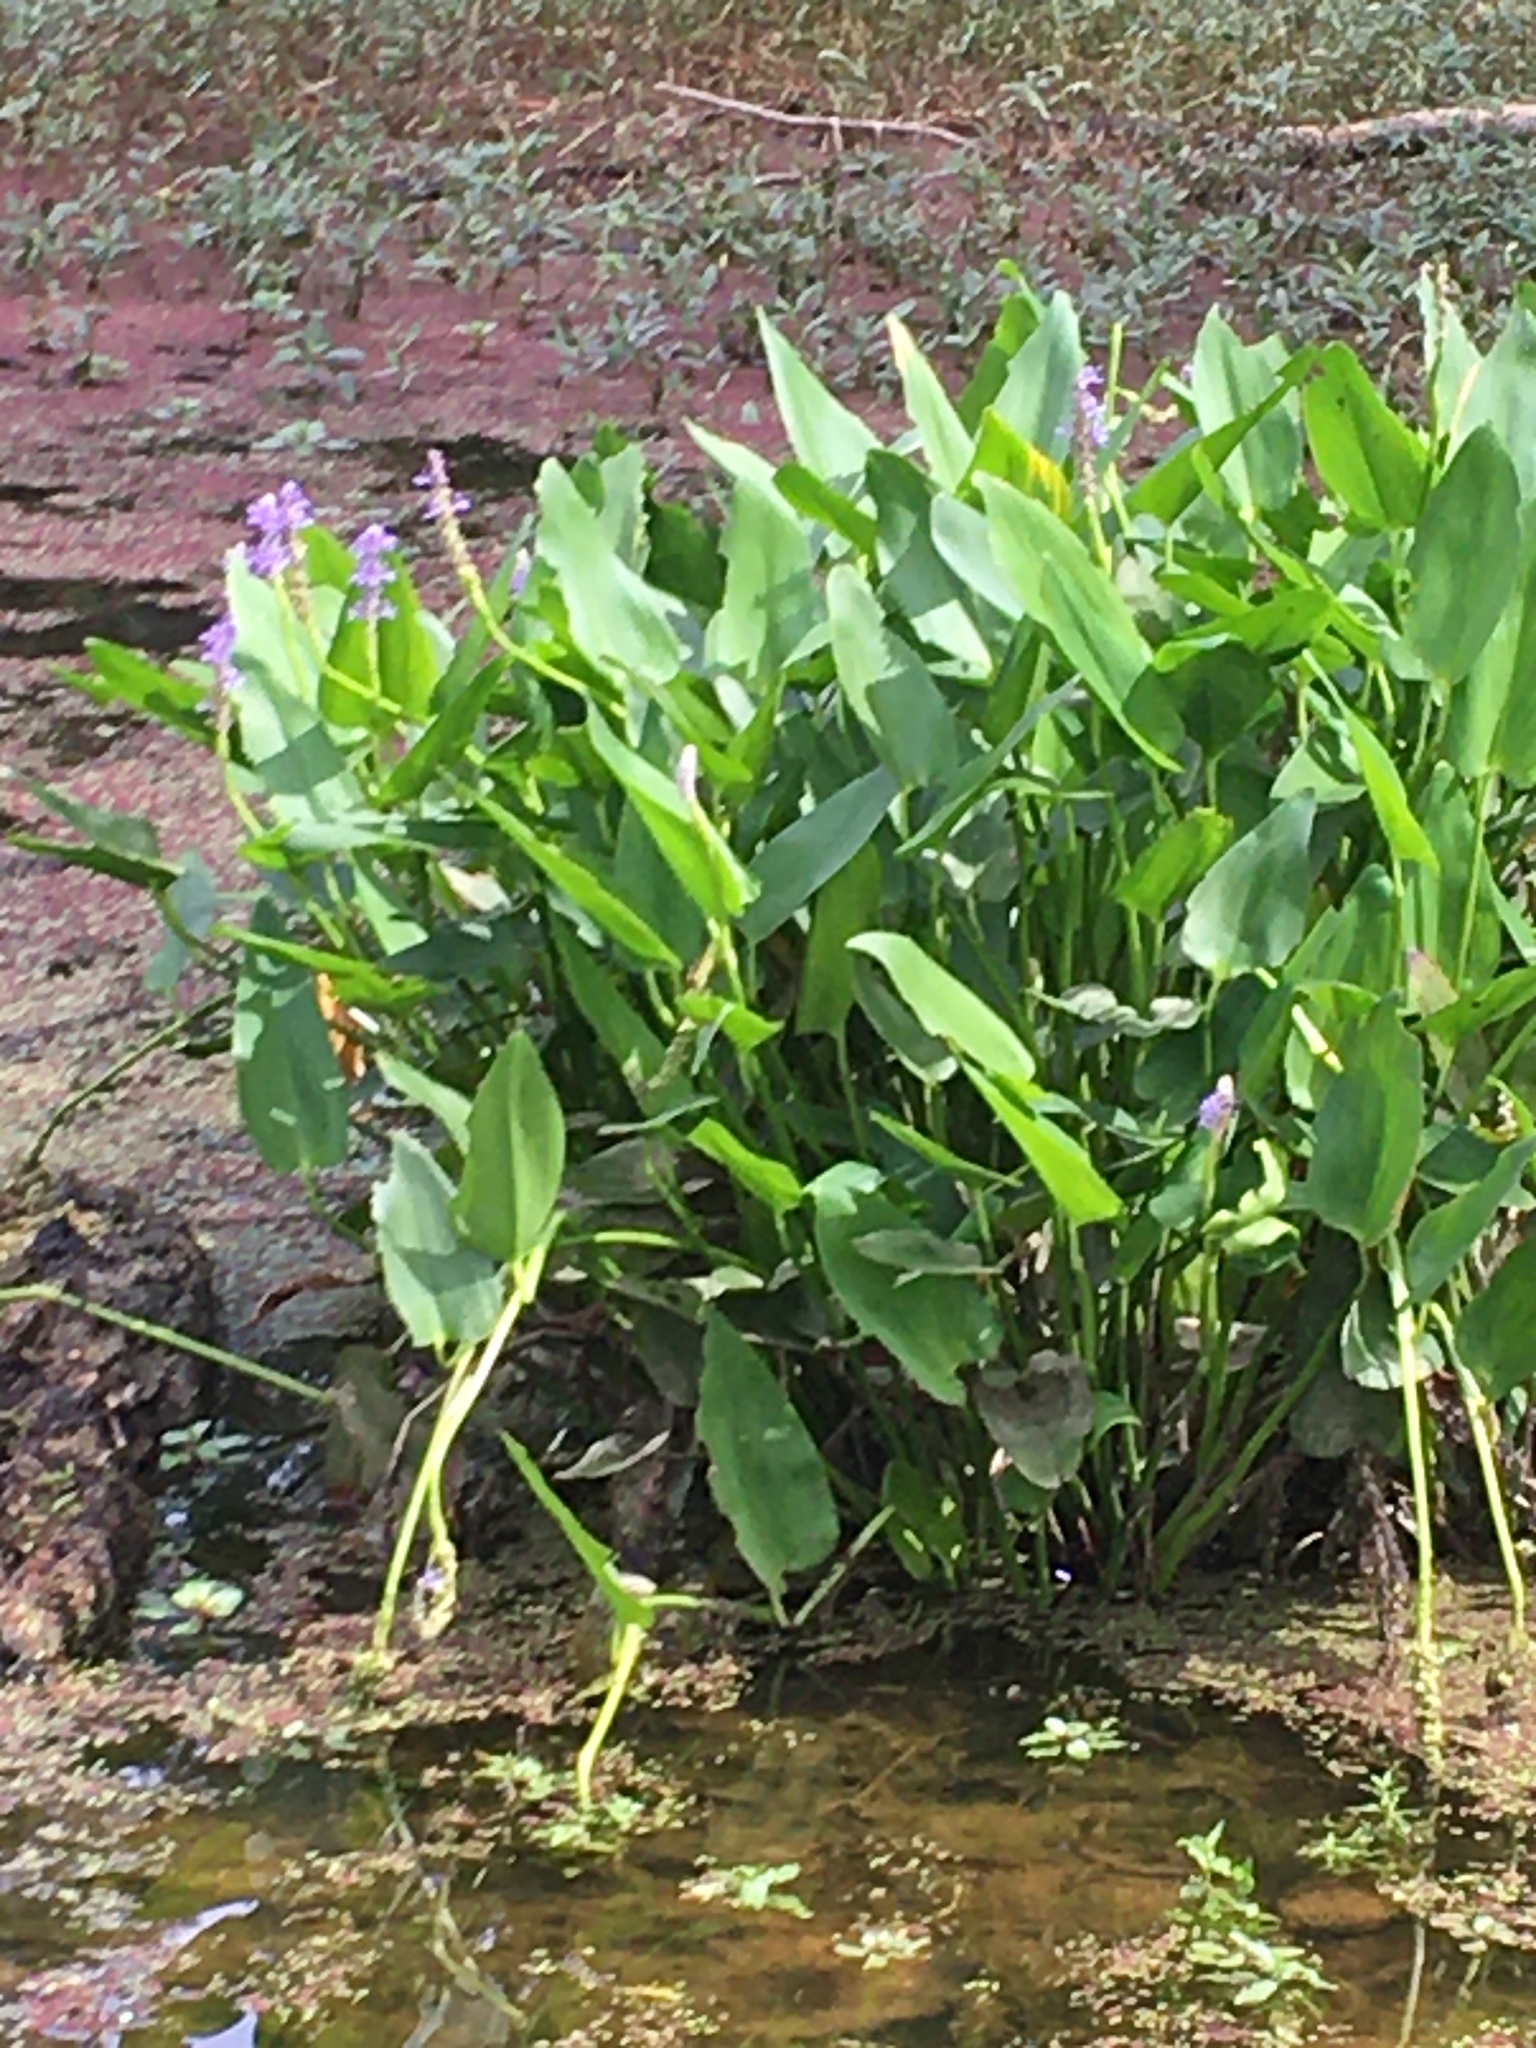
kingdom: Plantae
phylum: Tracheophyta
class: Liliopsida
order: Commelinales
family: Pontederiaceae
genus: Pontederia
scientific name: Pontederia cordata
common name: Pickerelweed
